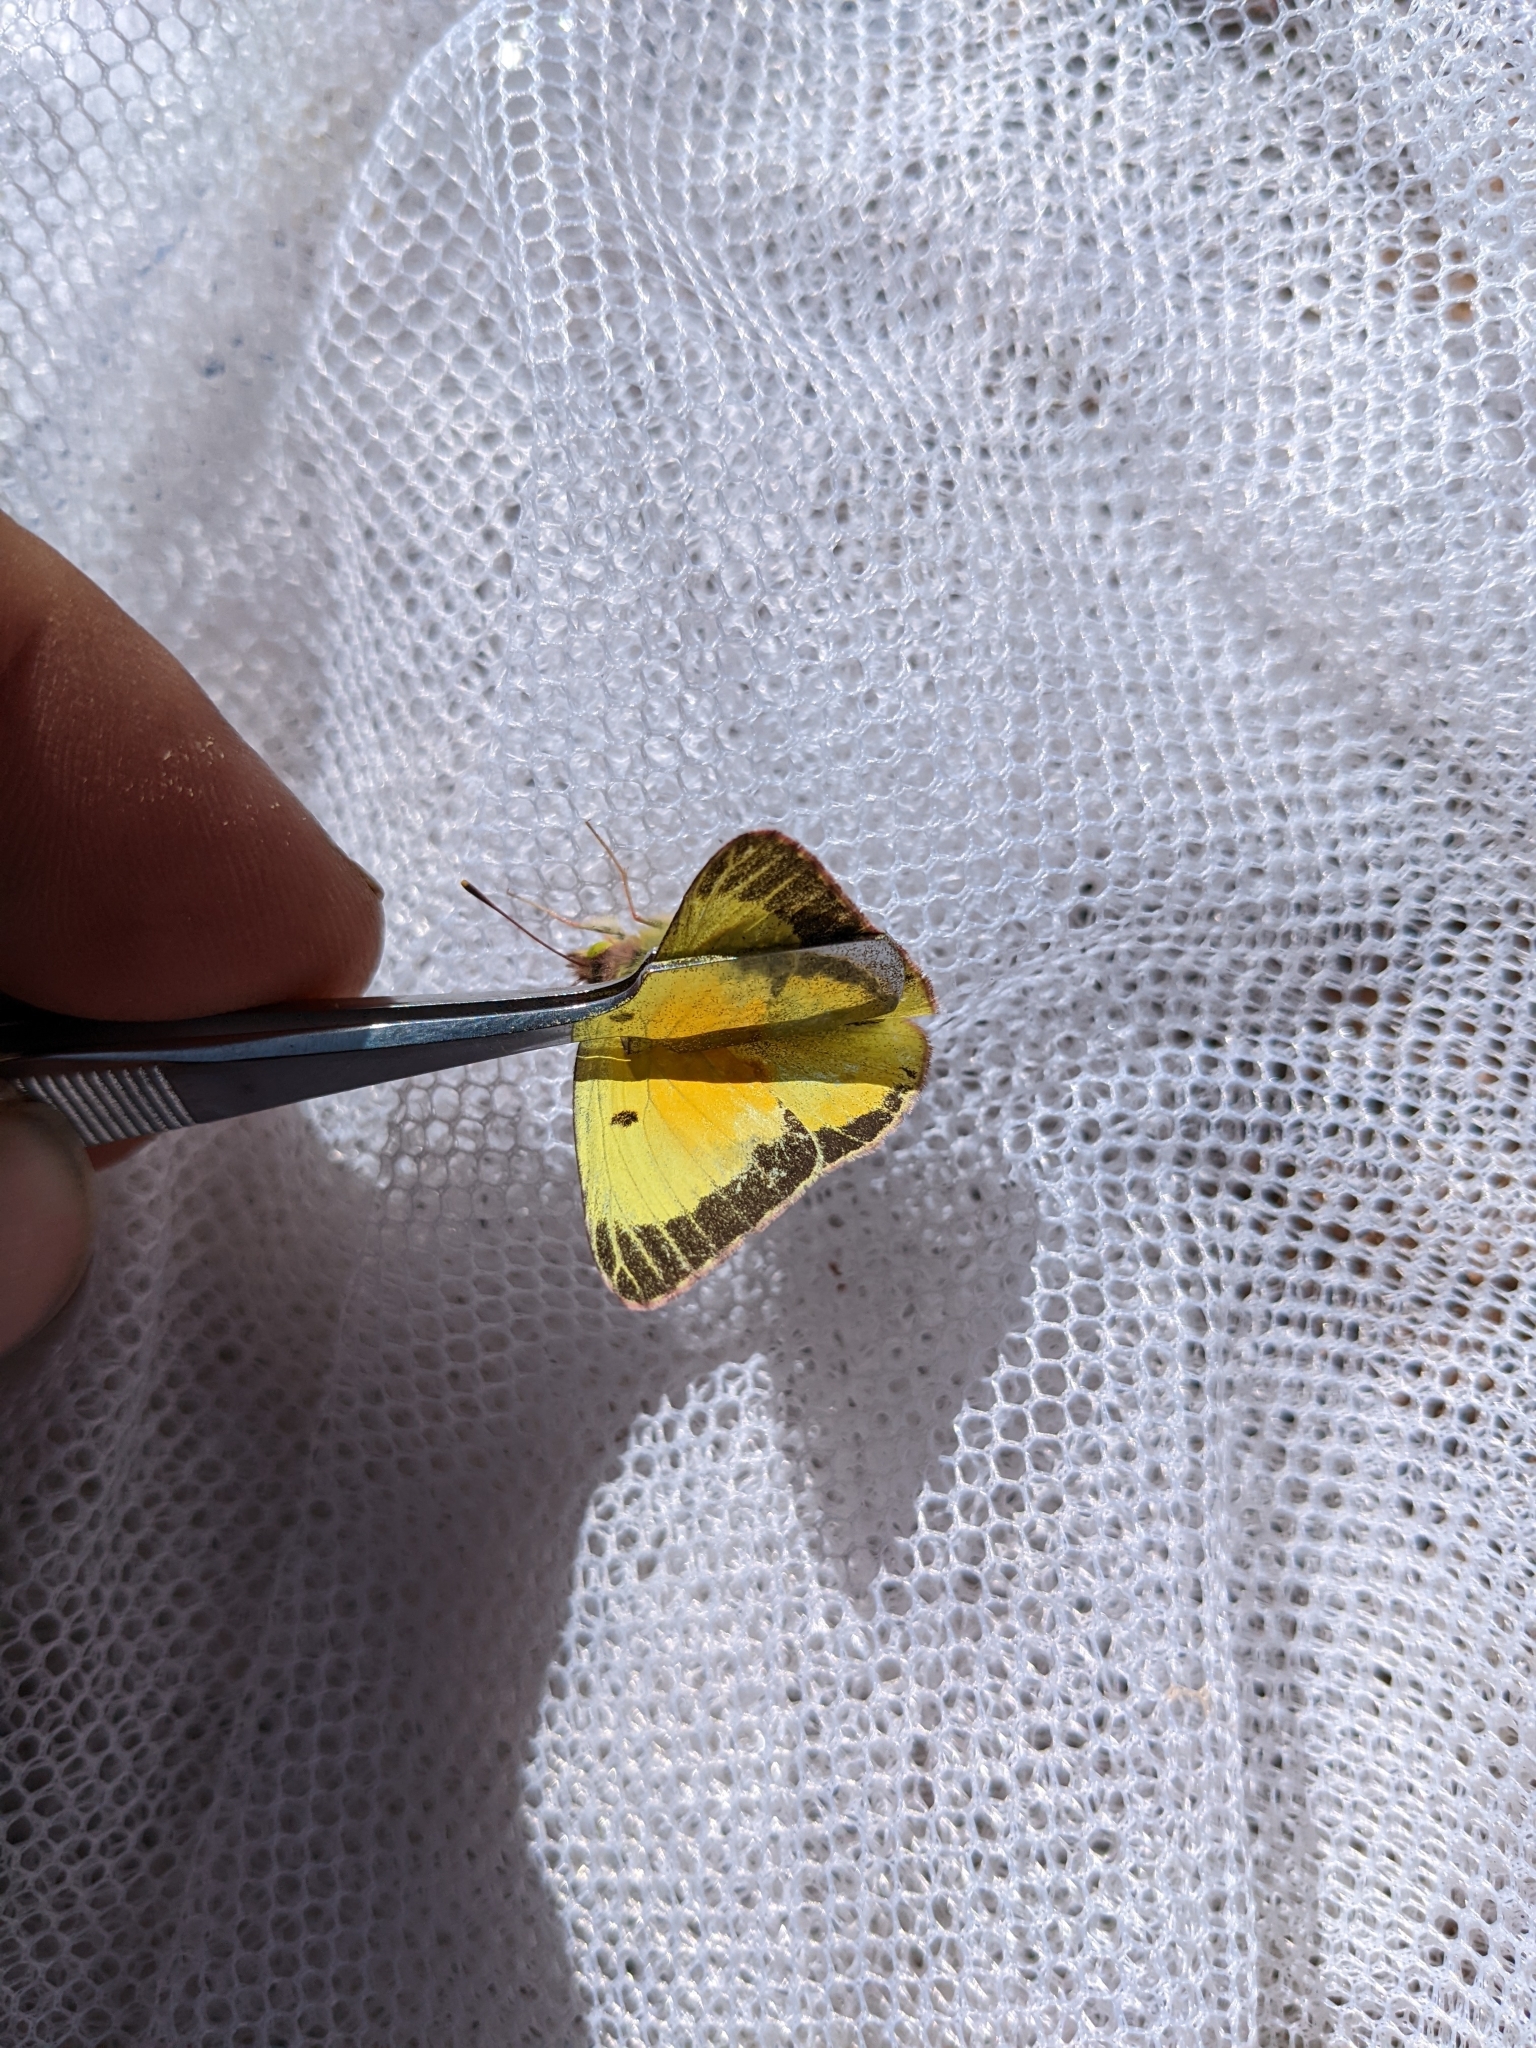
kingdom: Animalia
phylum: Arthropoda
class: Insecta
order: Lepidoptera
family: Pieridae
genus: Colias
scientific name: Colias eurytheme
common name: Alfalfa butterfly
